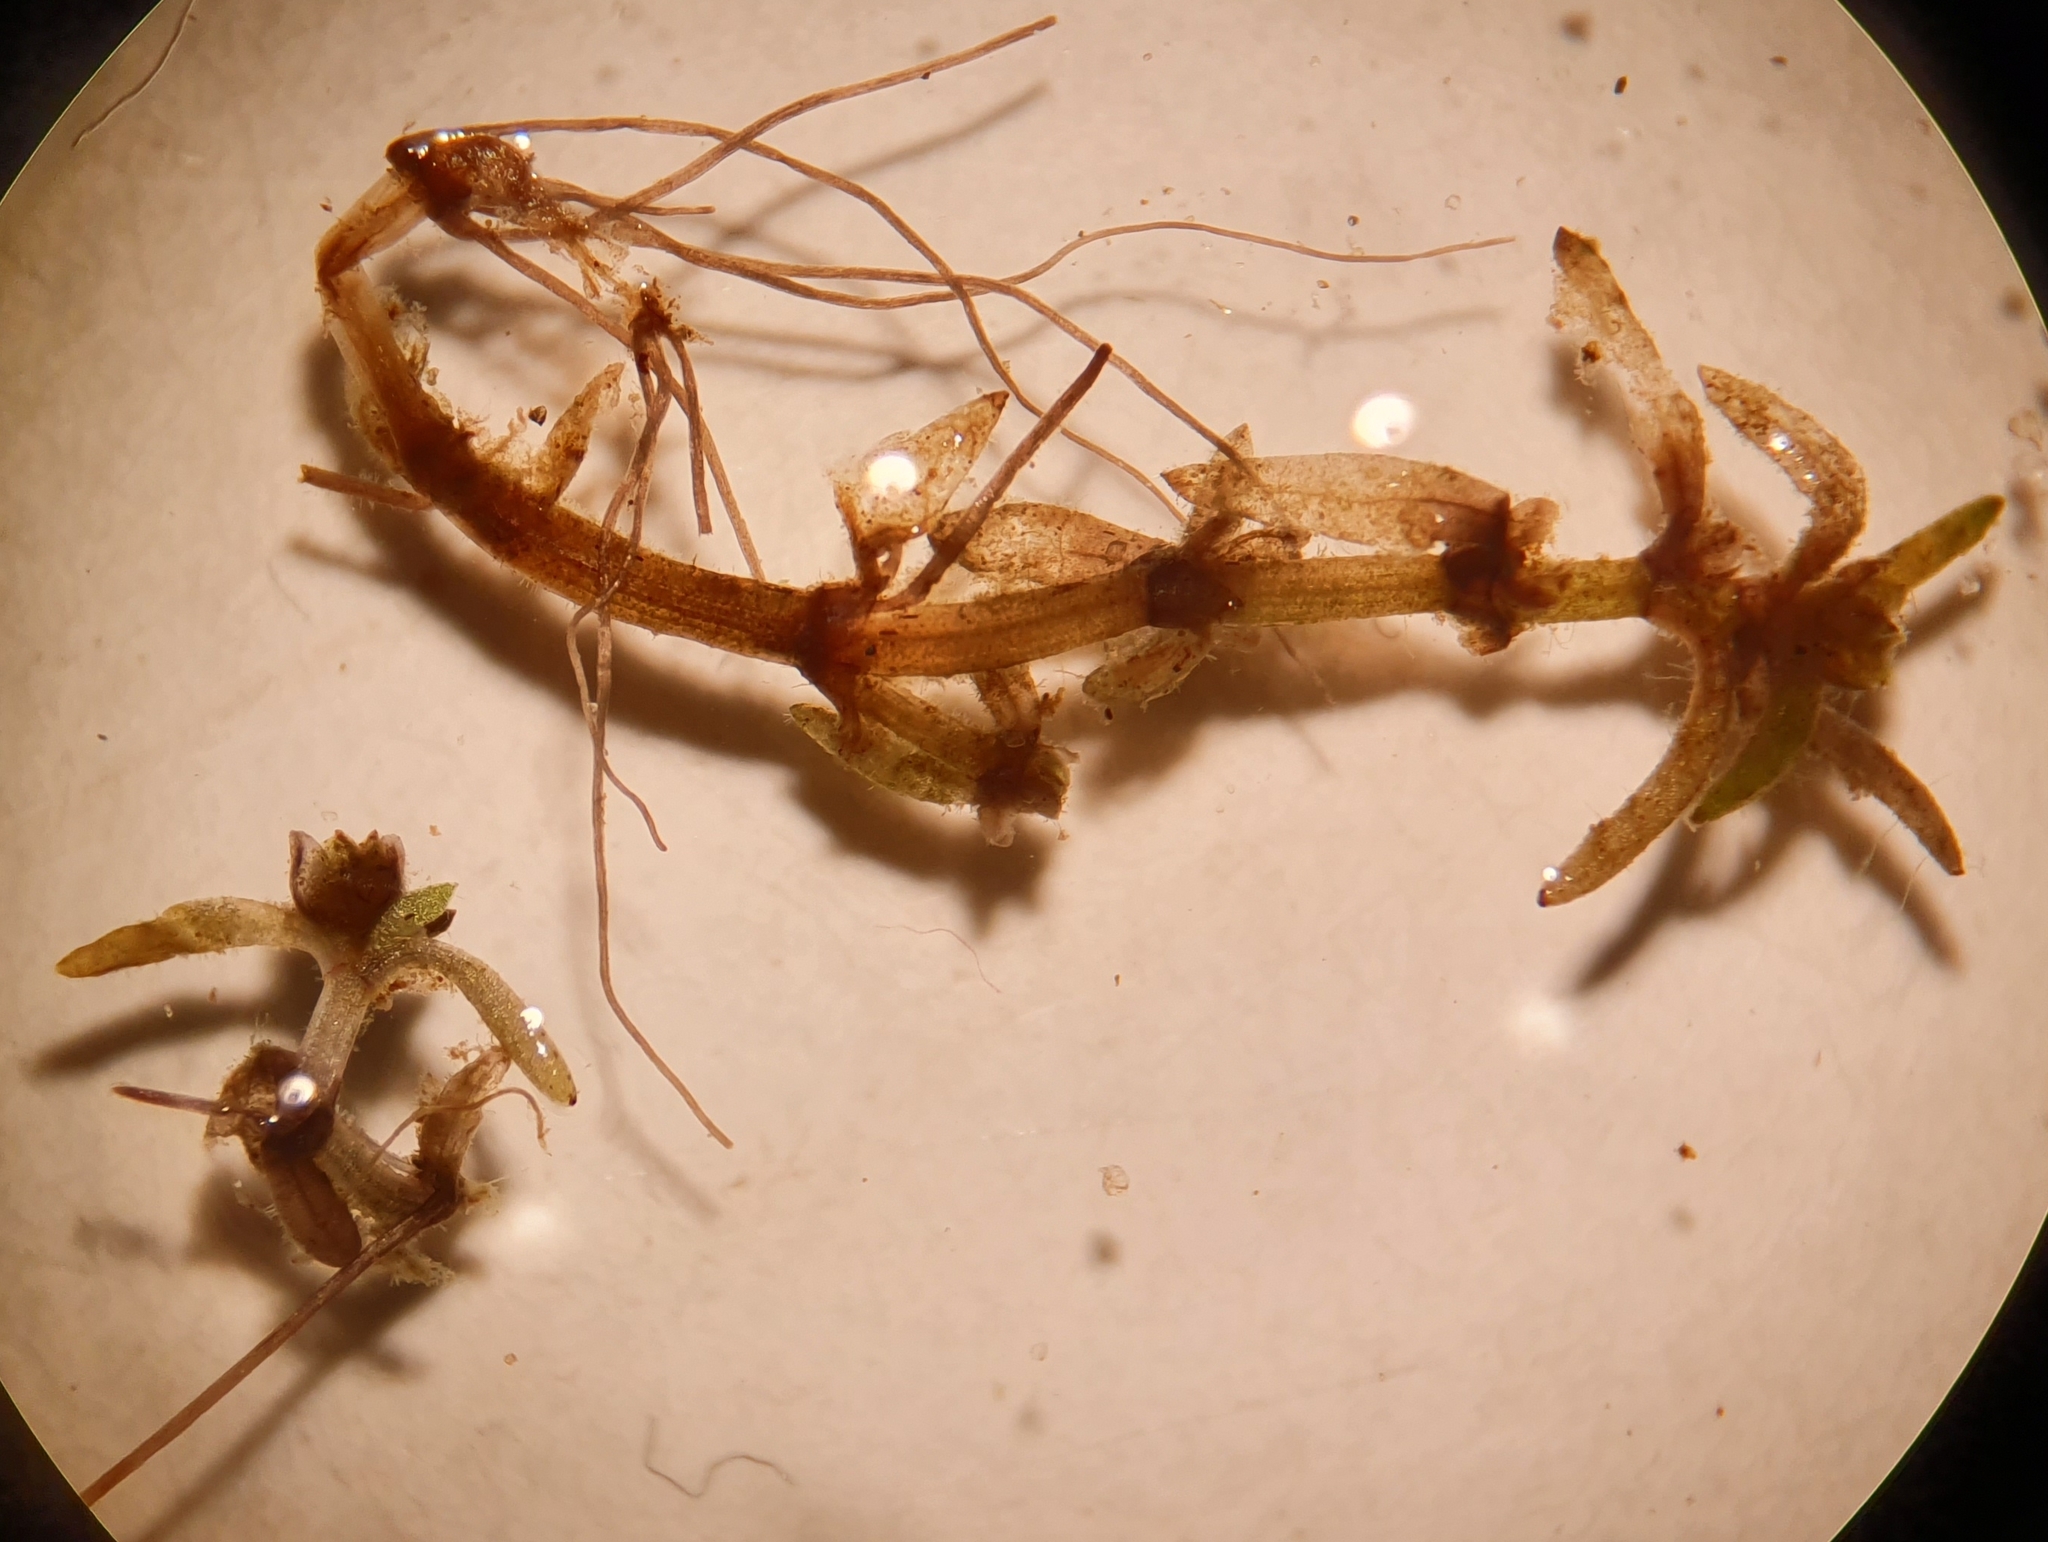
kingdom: Plantae
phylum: Tracheophyta
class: Magnoliopsida
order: Saxifragales
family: Crassulaceae
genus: Crassula
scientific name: Crassula aquatica
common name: Pigmyweed
